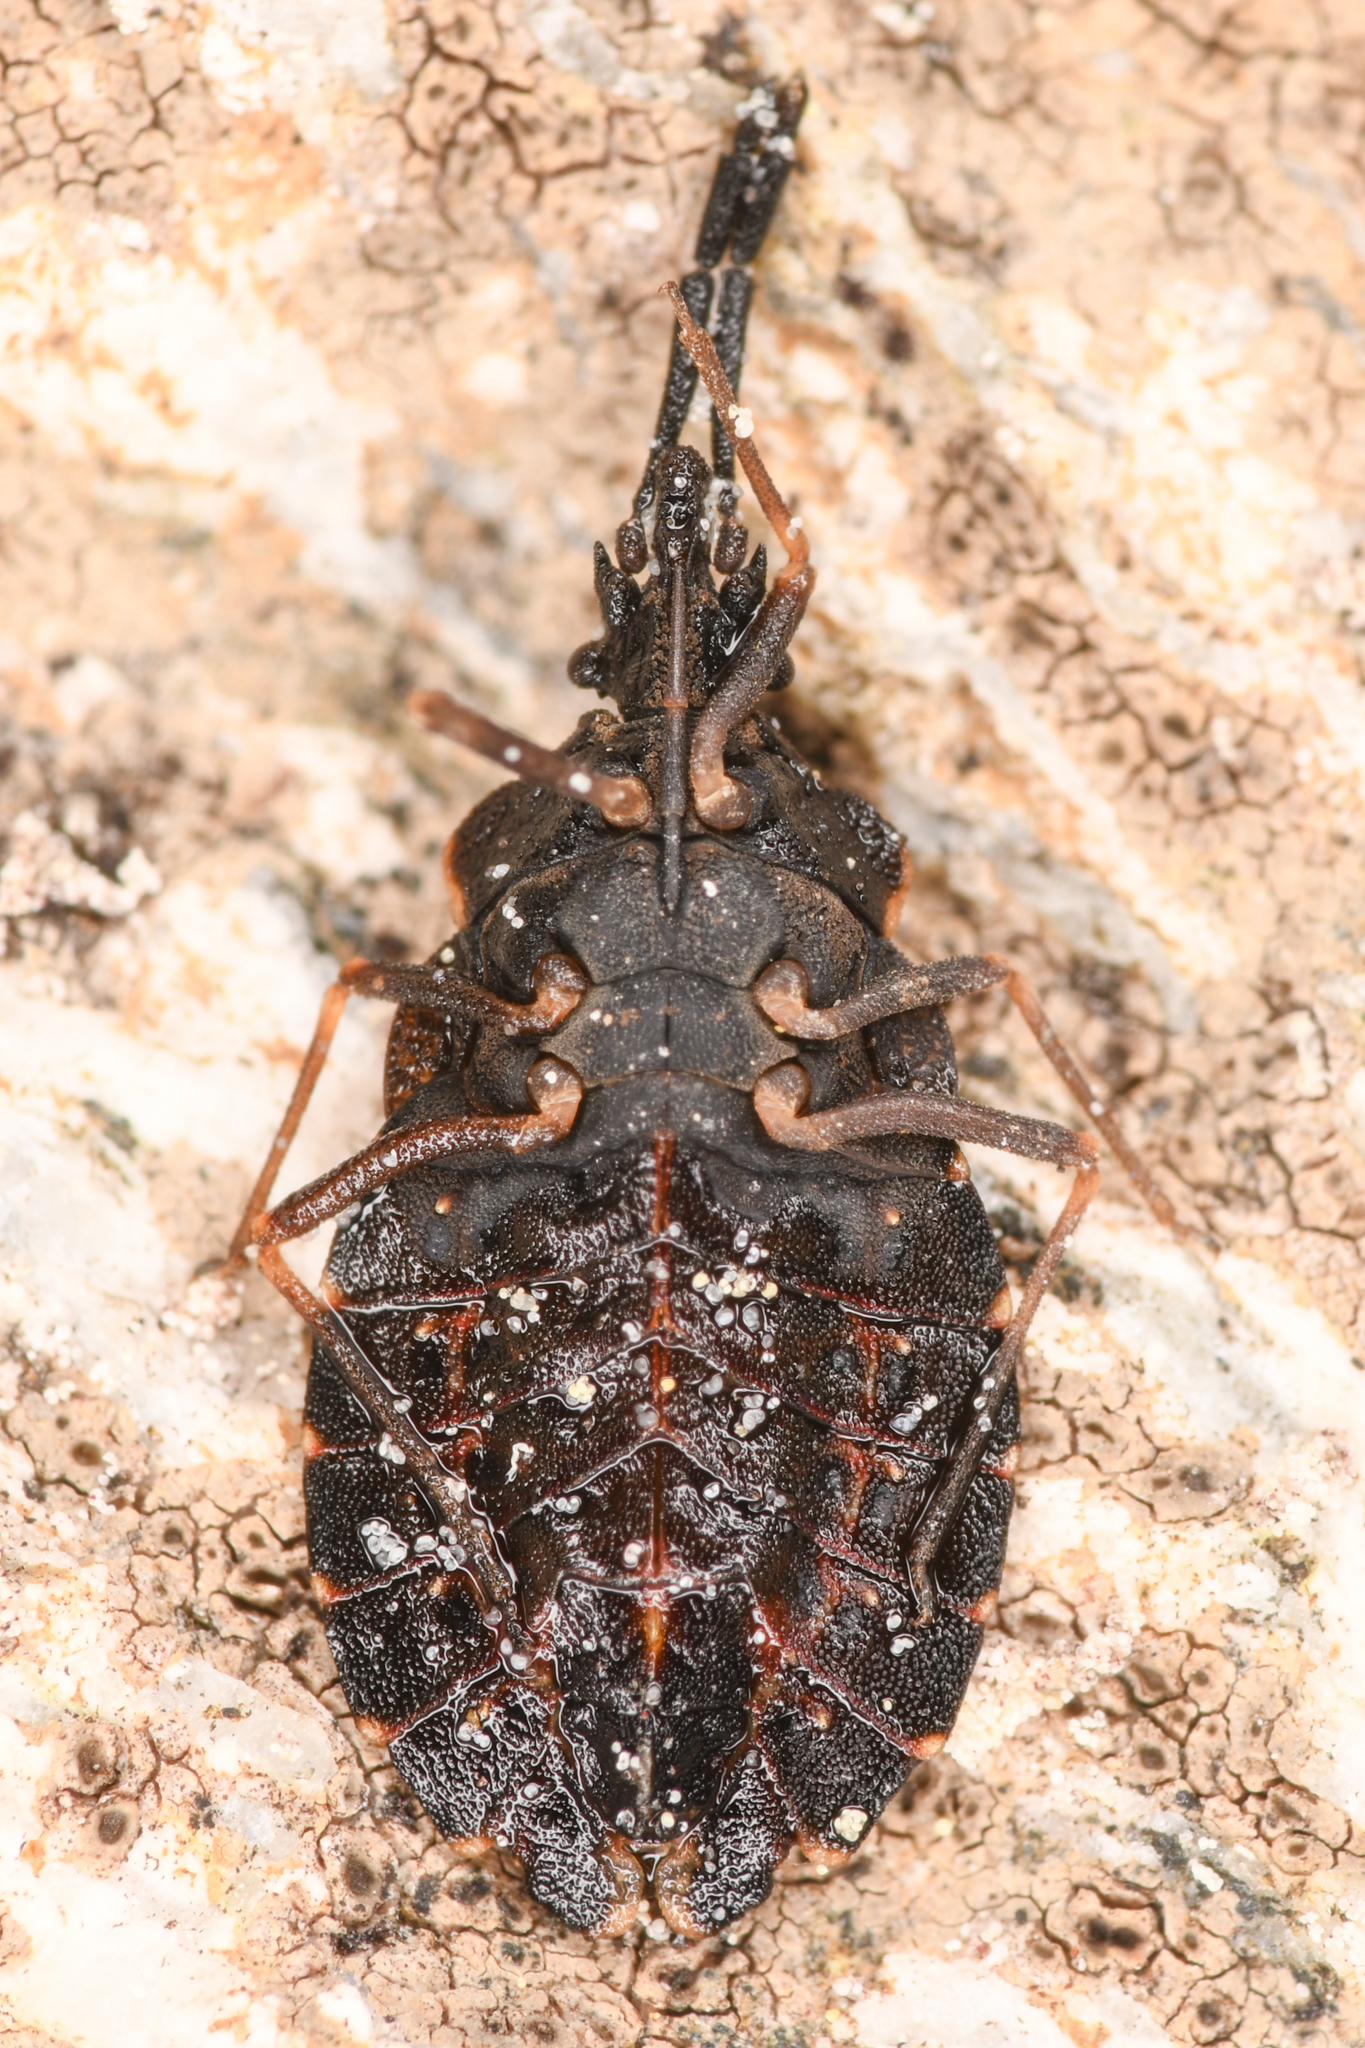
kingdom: Animalia
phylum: Arthropoda
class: Insecta
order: Hemiptera
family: Aradidae
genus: Aradus
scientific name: Aradus compressus
